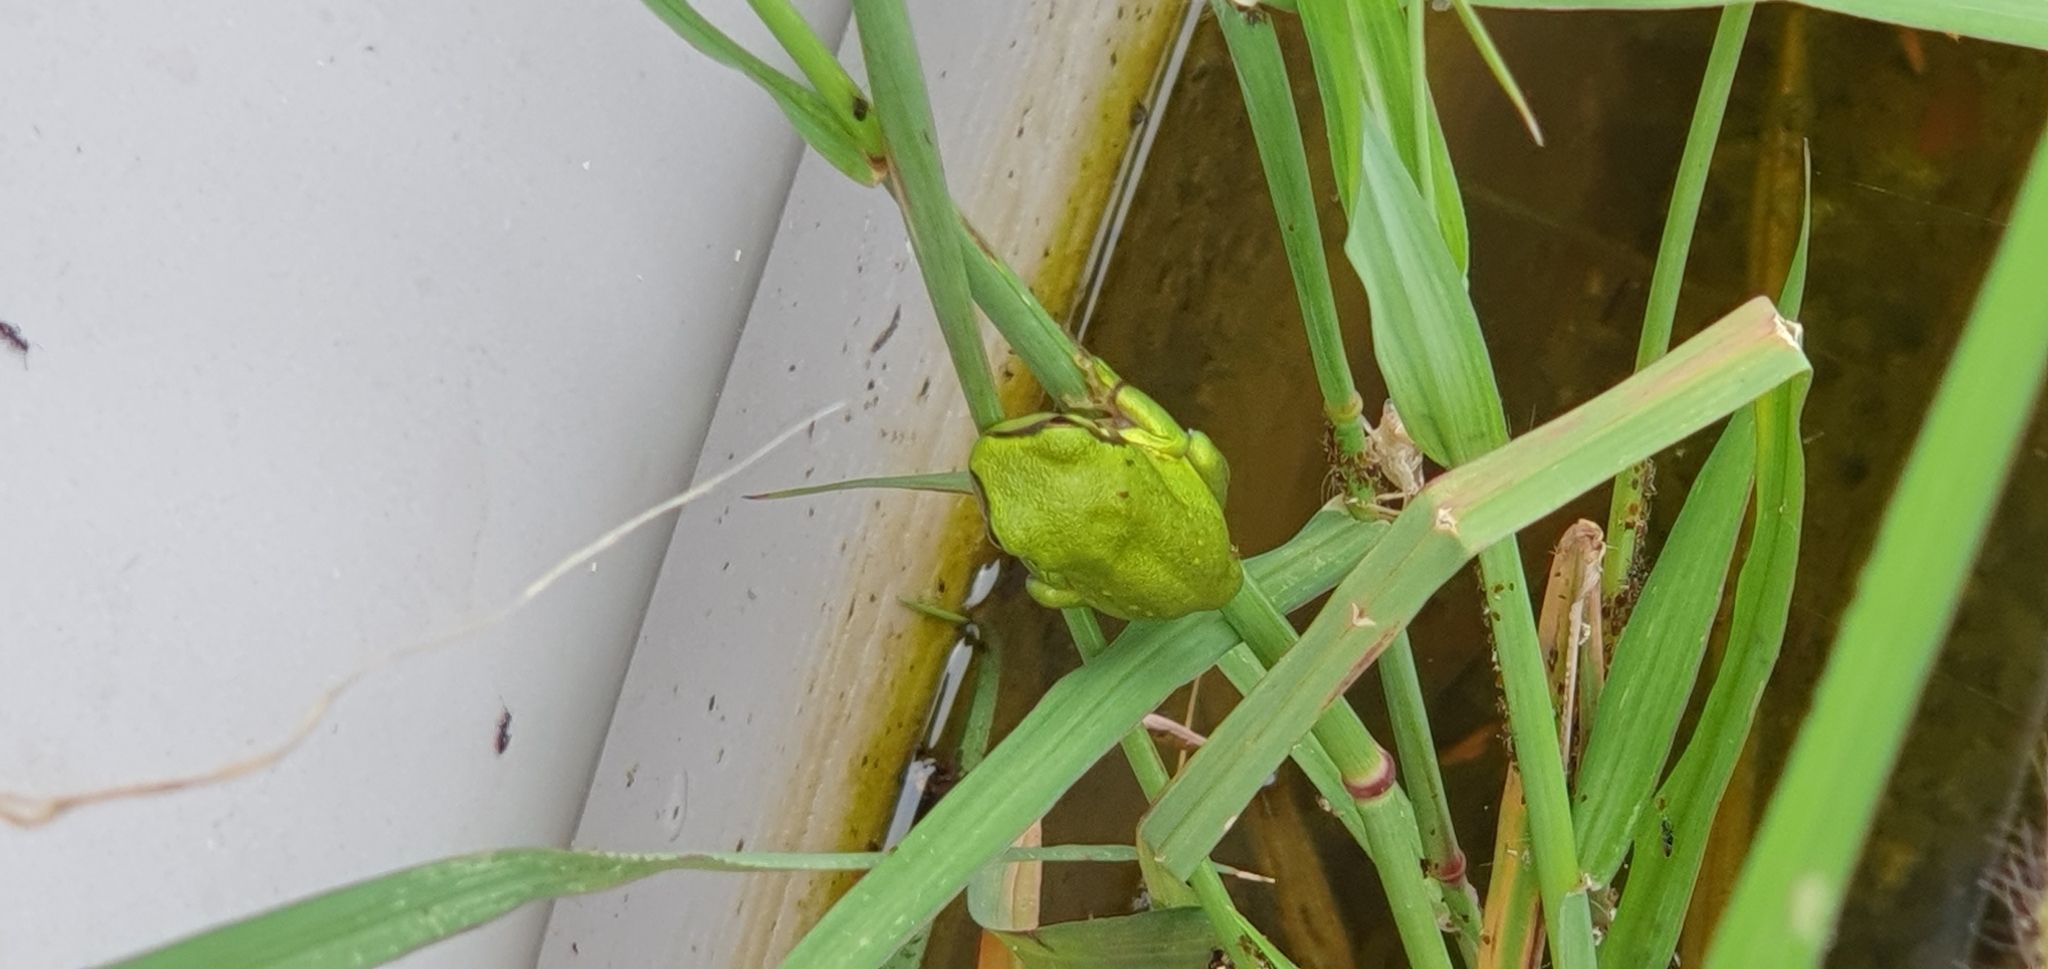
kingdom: Animalia
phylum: Chordata
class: Amphibia
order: Anura
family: Pelodryadidae
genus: Ranoidea
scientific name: Ranoidea caerulea
